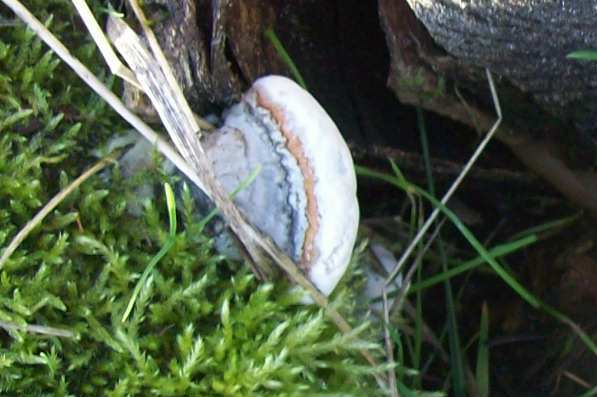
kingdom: Fungi
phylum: Basidiomycota
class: Agaricomycetes
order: Polyporales
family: Fomitopsidaceae
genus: Fomitopsis
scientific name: Fomitopsis pinicola
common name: Red-belted bracket
